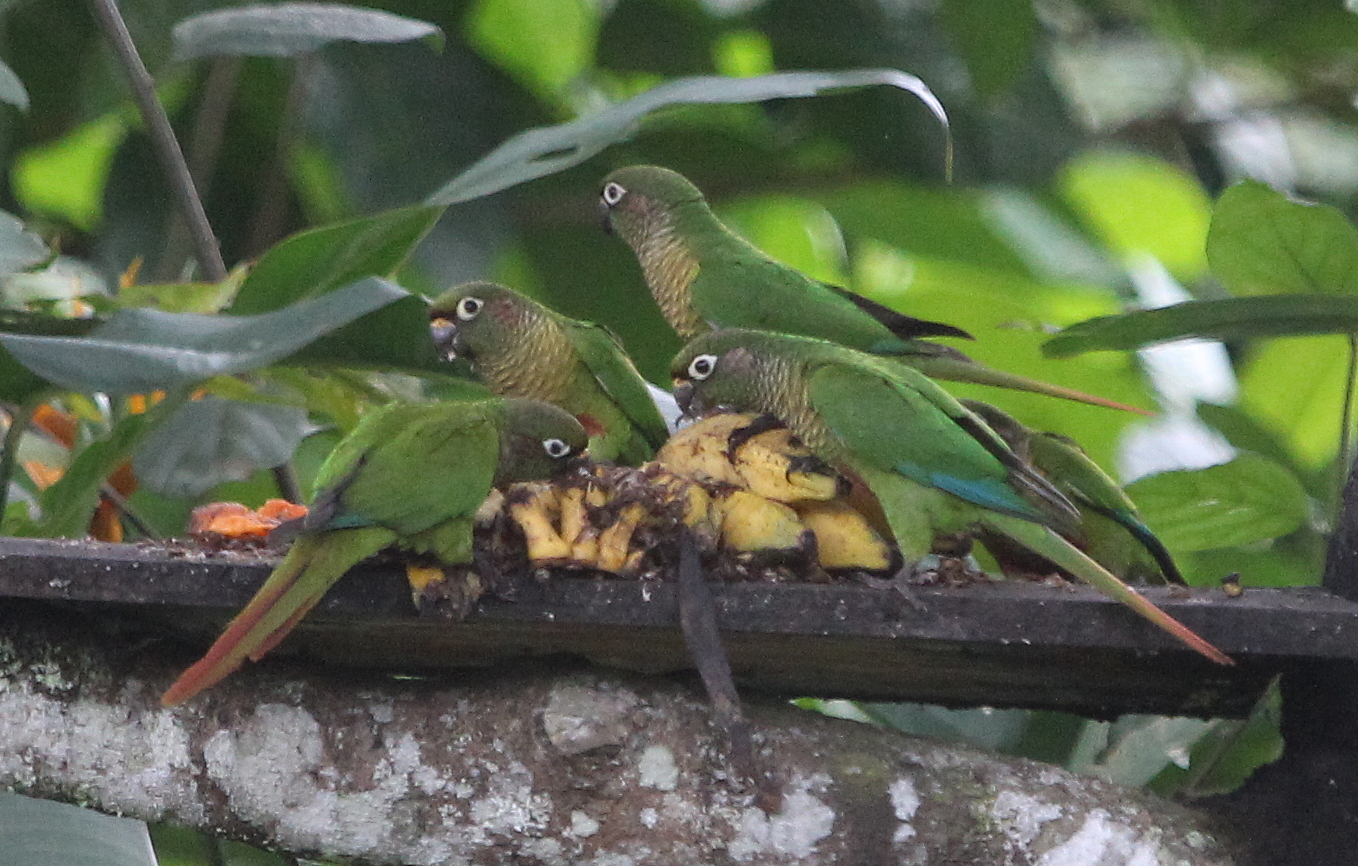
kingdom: Animalia
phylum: Chordata
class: Aves
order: Psittaciformes
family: Psittacidae
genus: Pyrrhura
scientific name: Pyrrhura frontalis
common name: Maroon-bellied parakeet
